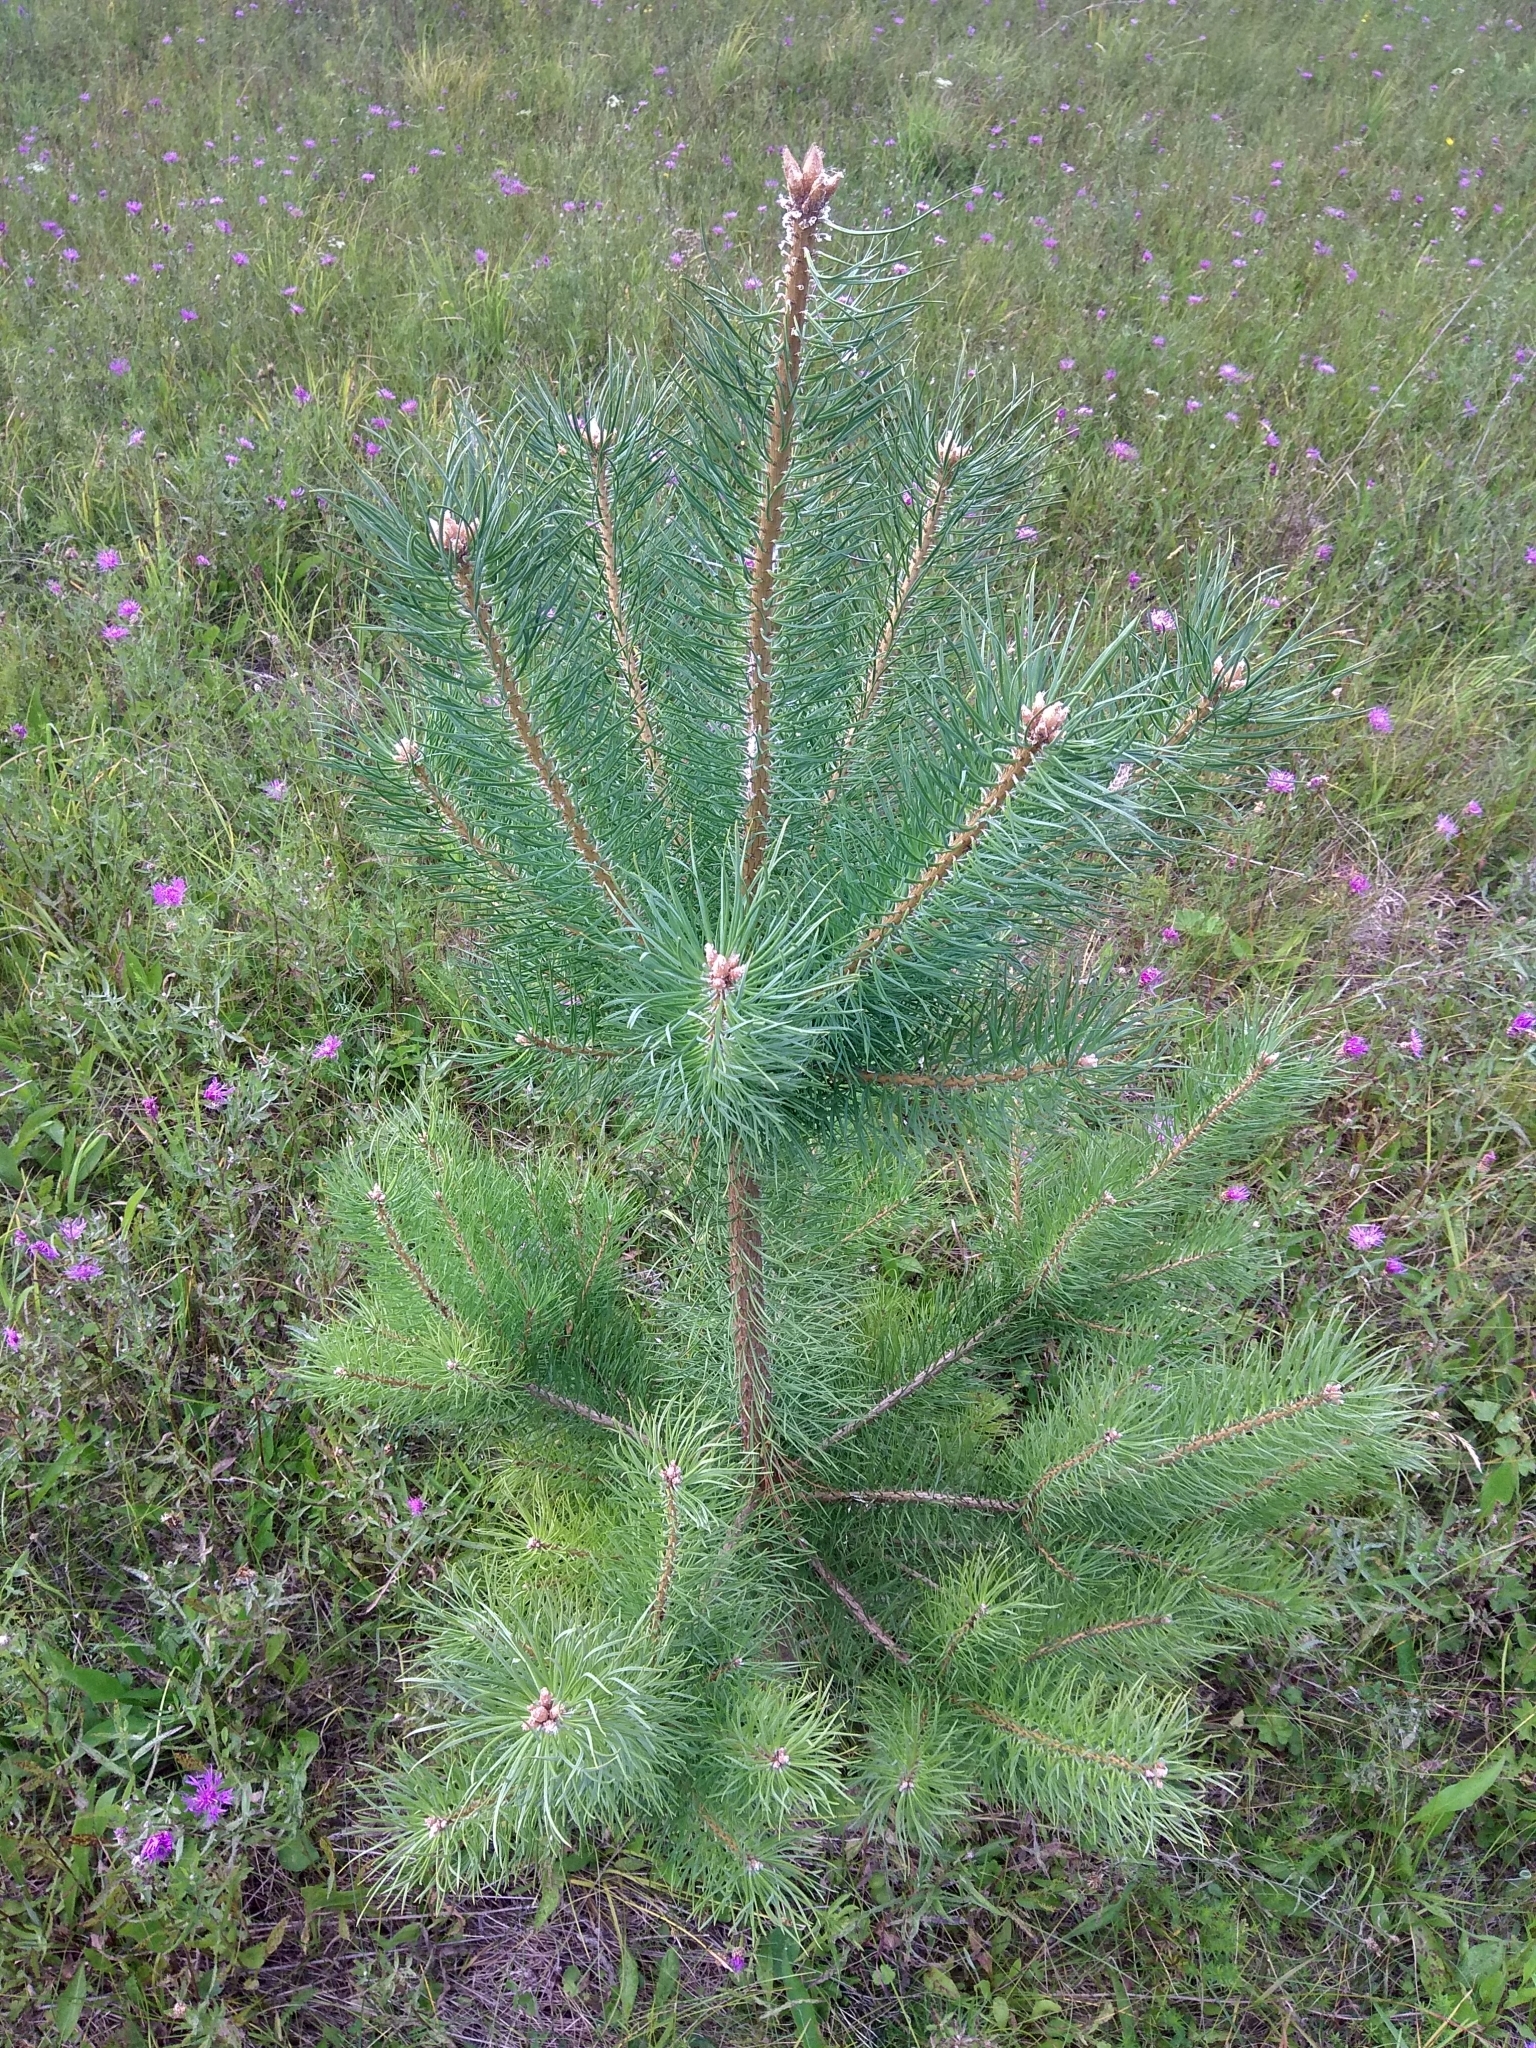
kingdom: Plantae
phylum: Tracheophyta
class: Pinopsida
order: Pinales
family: Pinaceae
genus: Pinus
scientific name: Pinus sylvestris
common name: Scots pine
